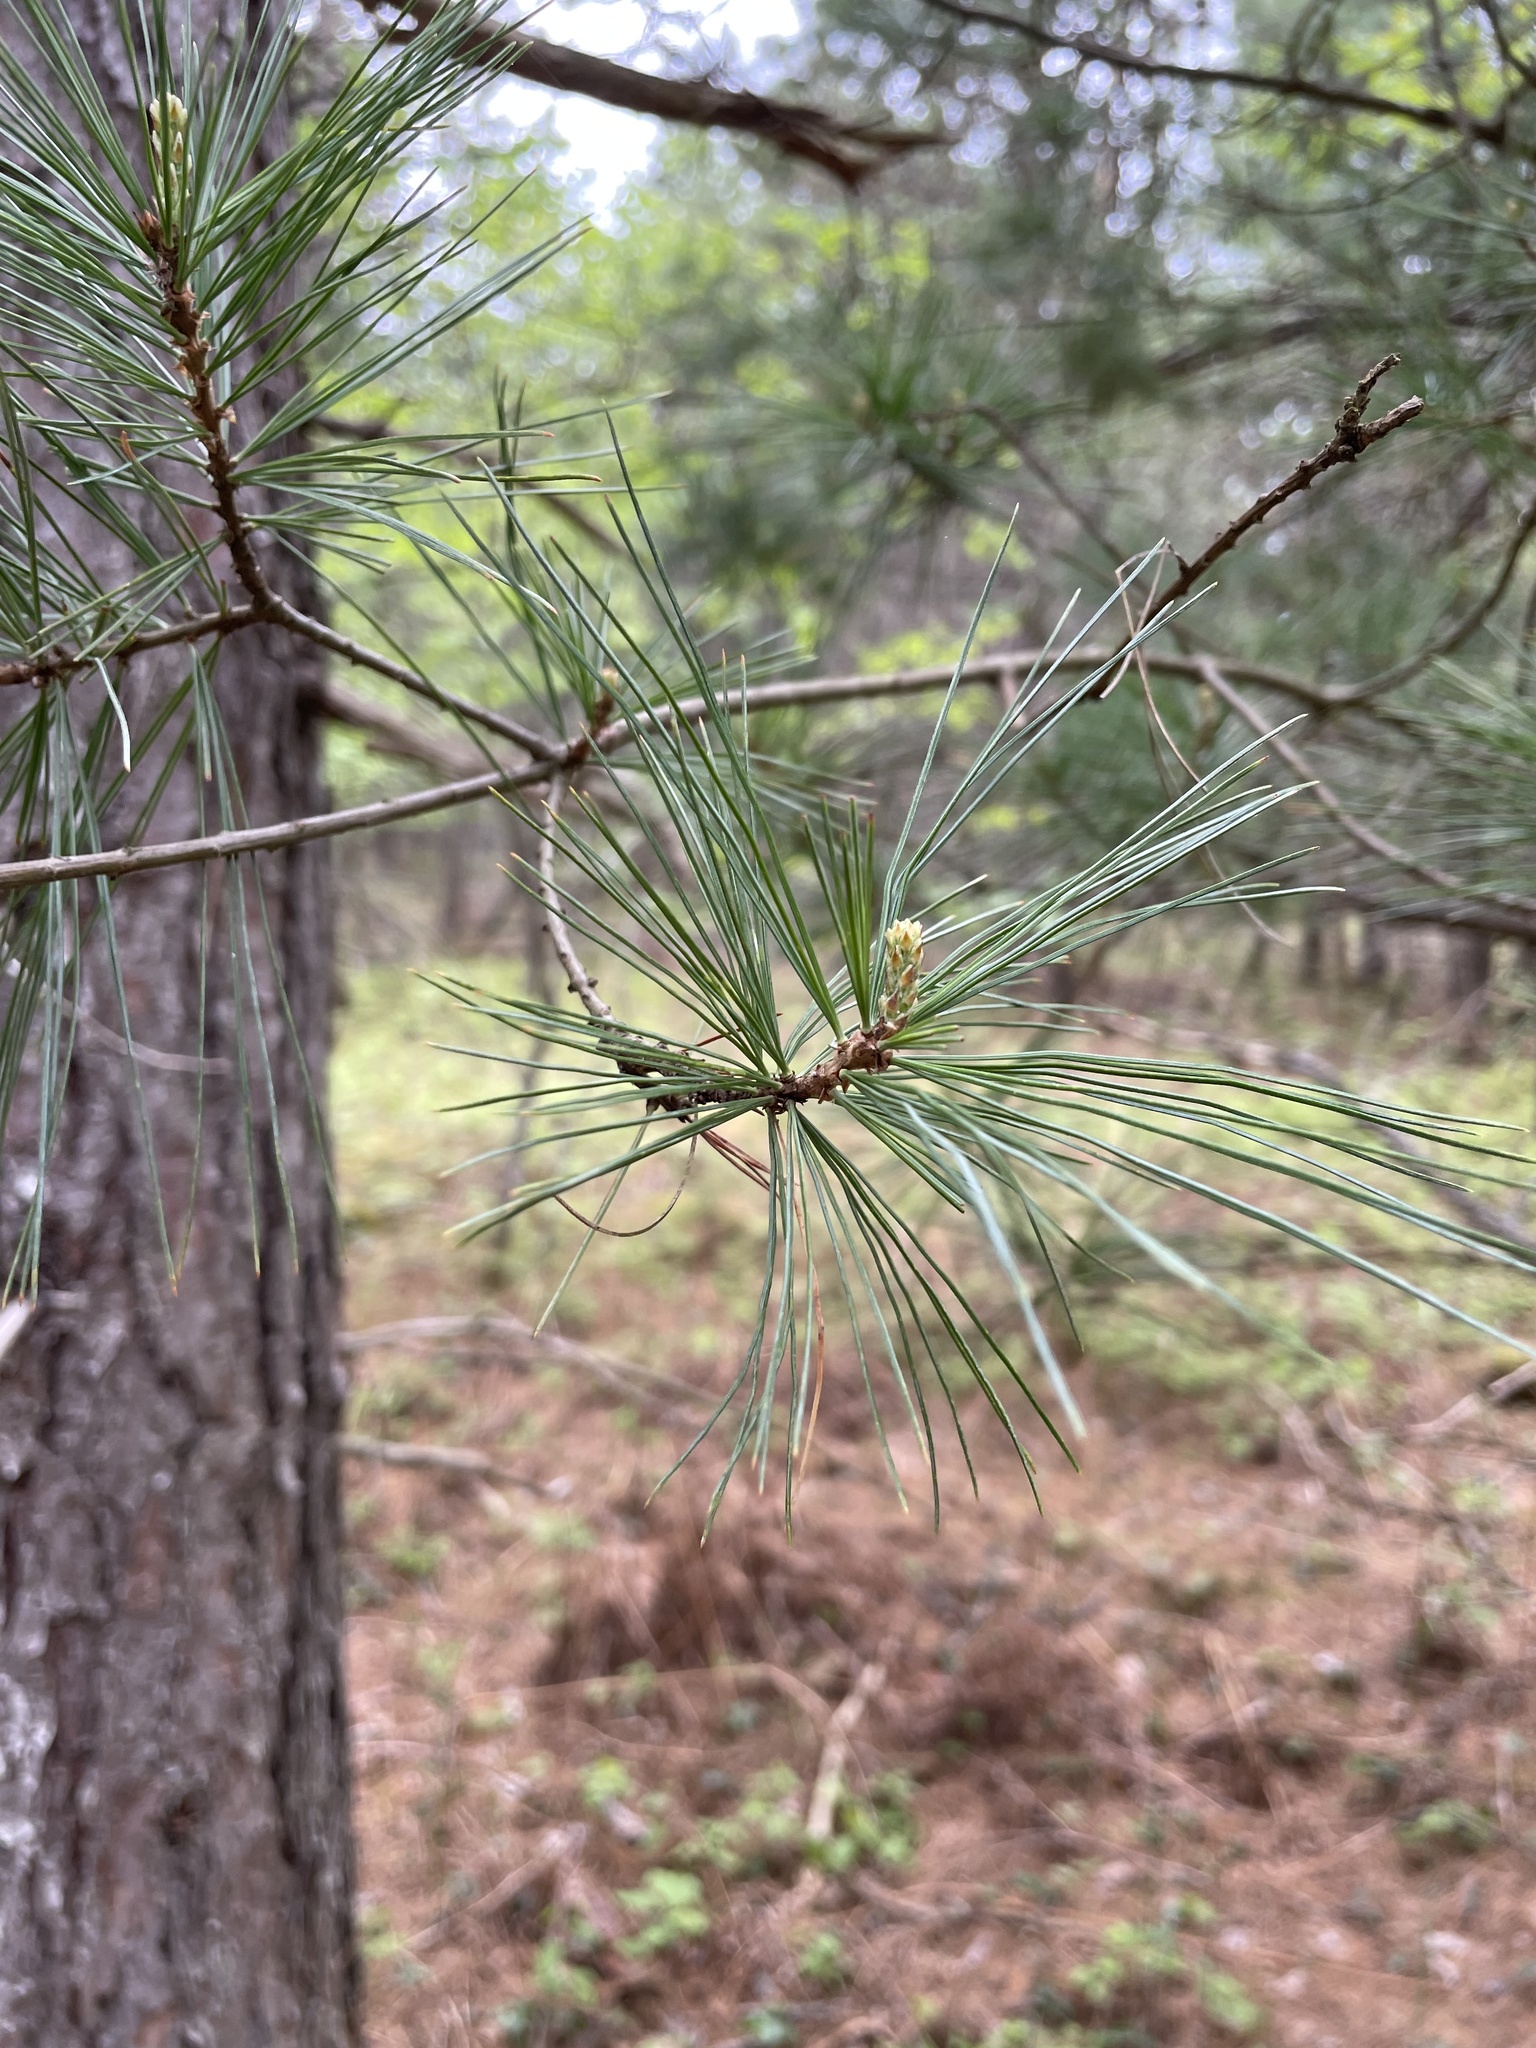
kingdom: Plantae
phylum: Tracheophyta
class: Pinopsida
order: Pinales
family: Pinaceae
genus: Pinus
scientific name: Pinus strobus
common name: Weymouth pine
